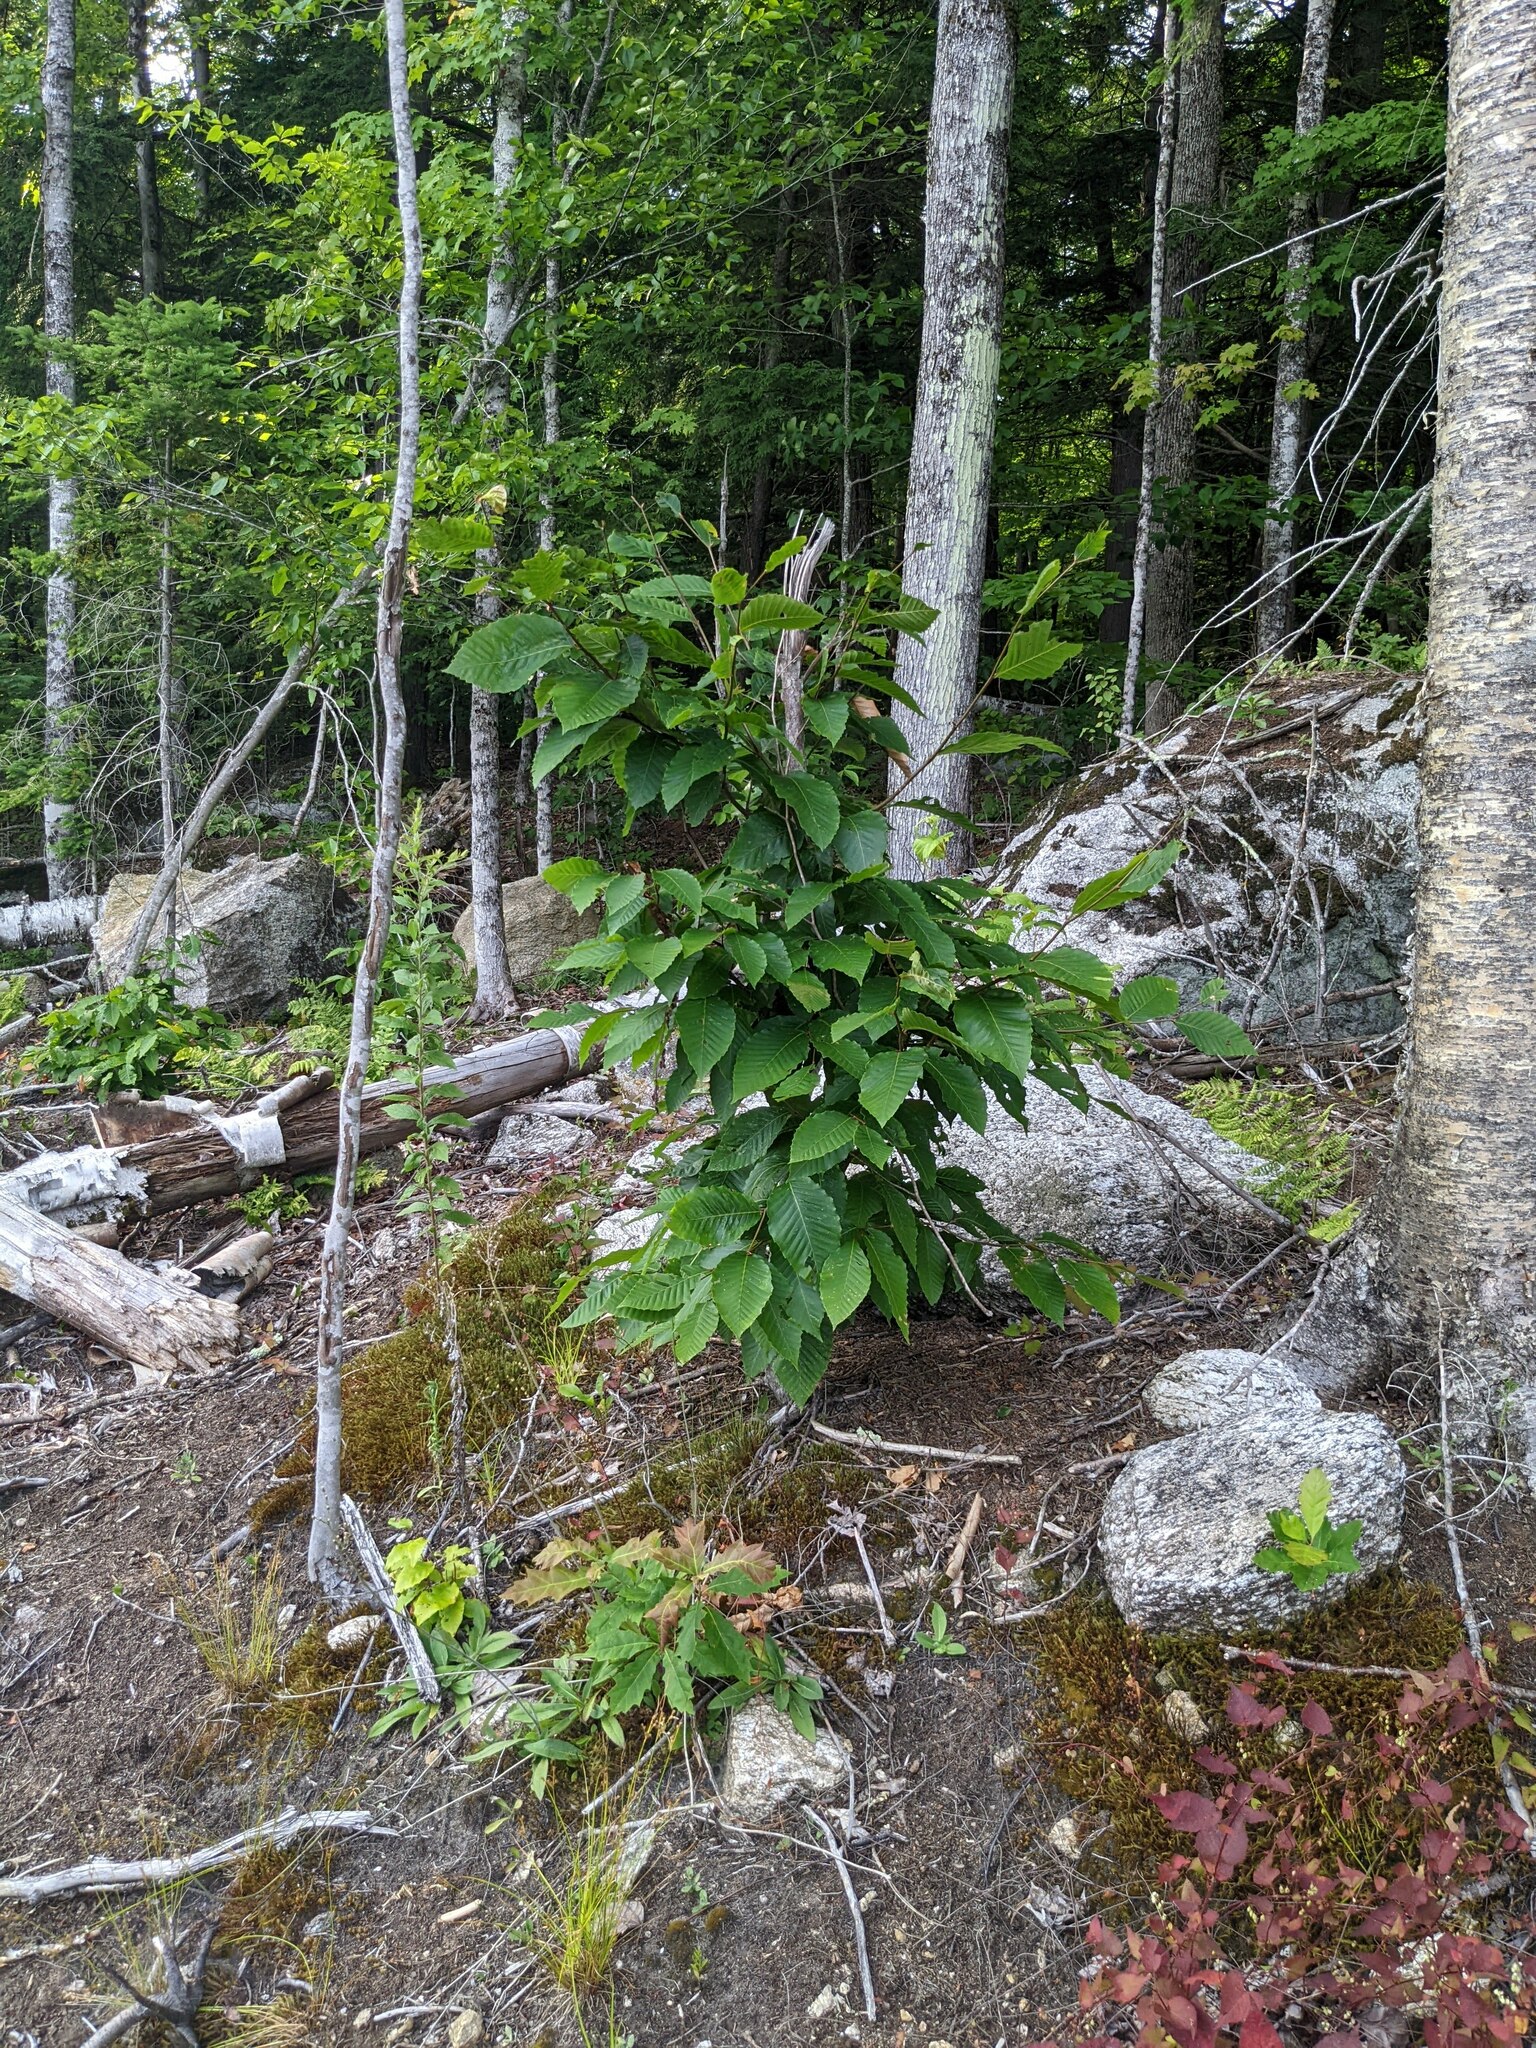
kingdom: Plantae
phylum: Tracheophyta
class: Magnoliopsida
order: Fagales
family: Fagaceae
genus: Fagus
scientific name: Fagus grandifolia
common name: American beech
